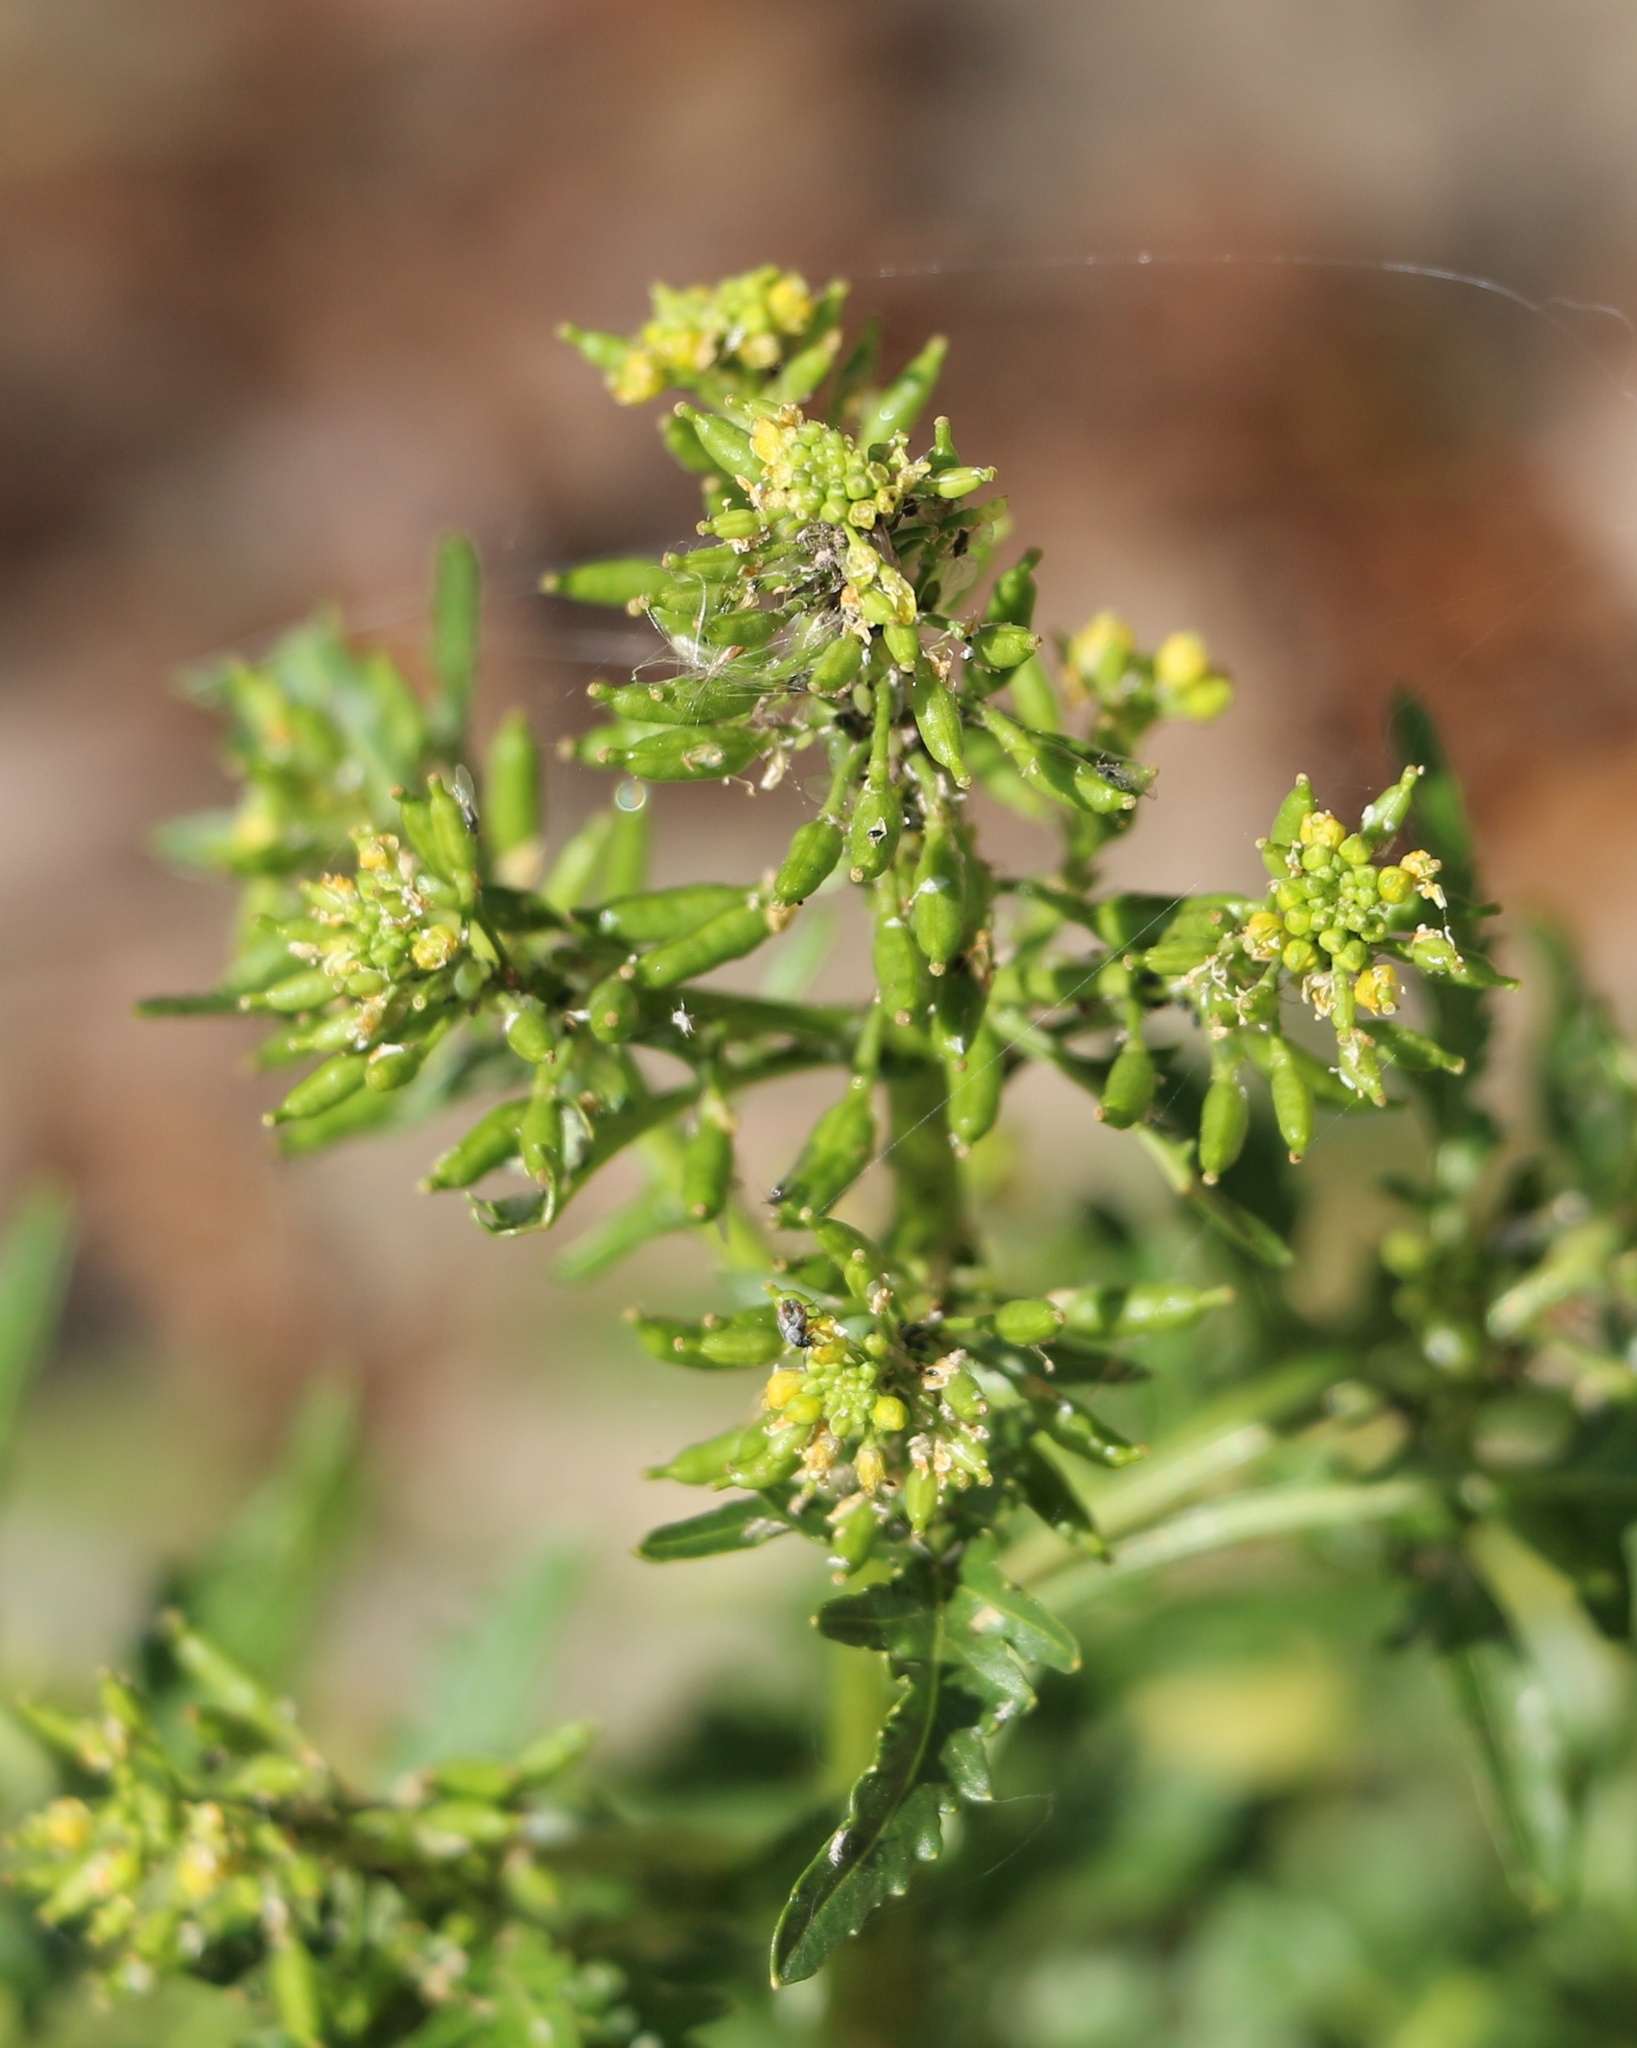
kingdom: Plantae
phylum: Tracheophyta
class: Magnoliopsida
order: Brassicales
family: Brassicaceae
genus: Rorippa
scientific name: Rorippa palustris
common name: Marsh yellow-cress
